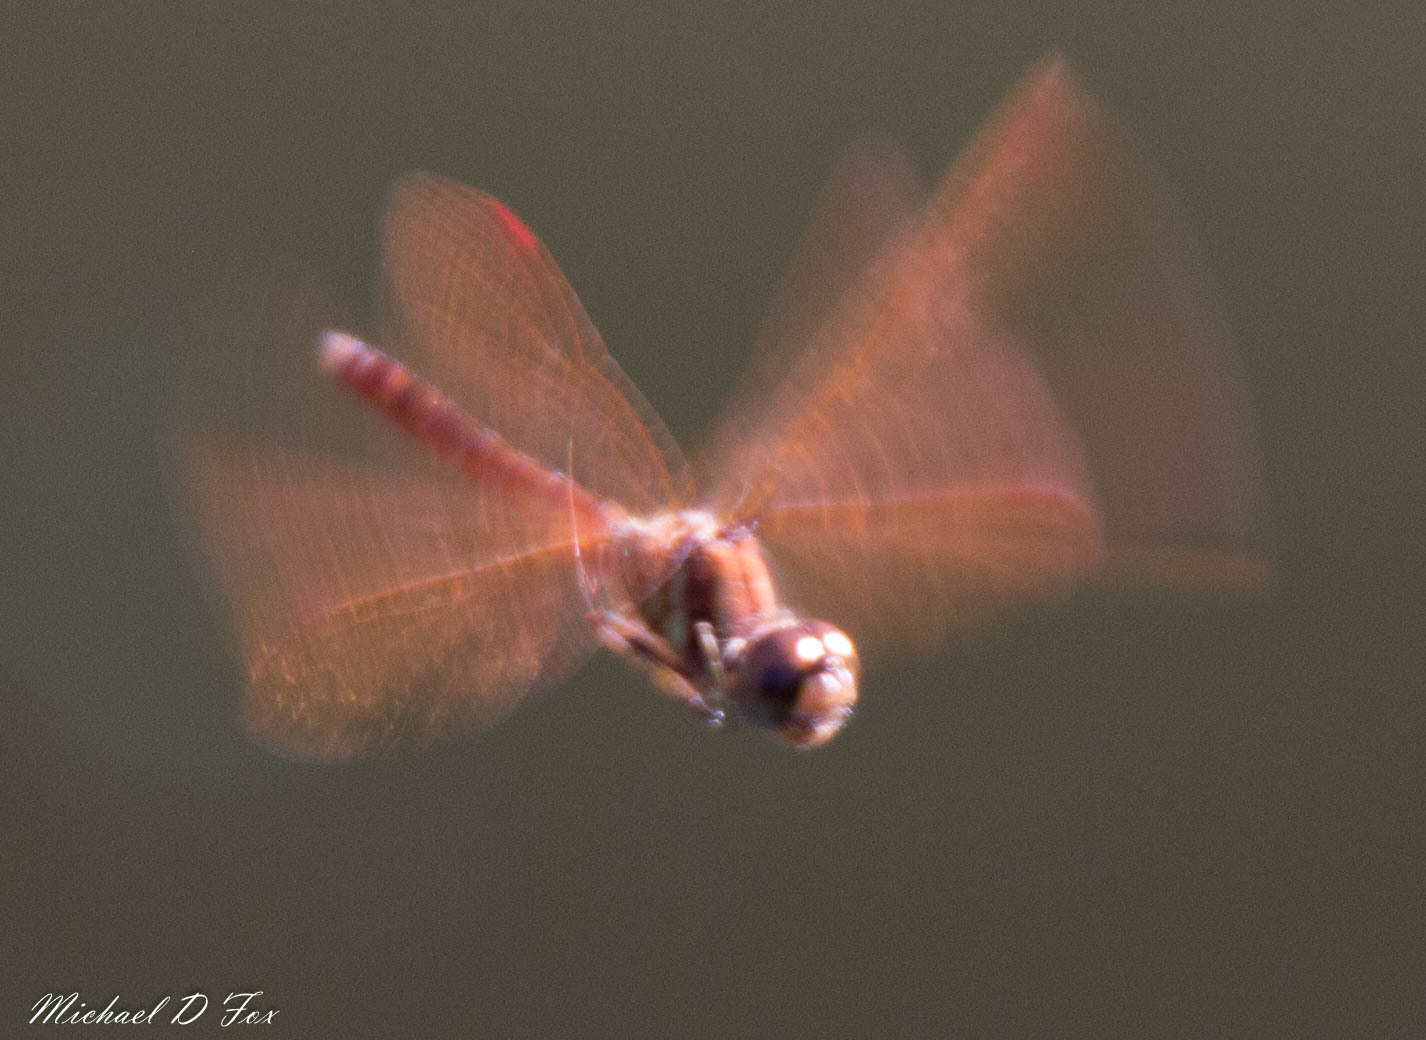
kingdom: Animalia
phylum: Arthropoda
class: Insecta
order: Odonata
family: Libellulidae
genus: Perithemis
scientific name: Perithemis tenera
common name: Eastern amberwing
